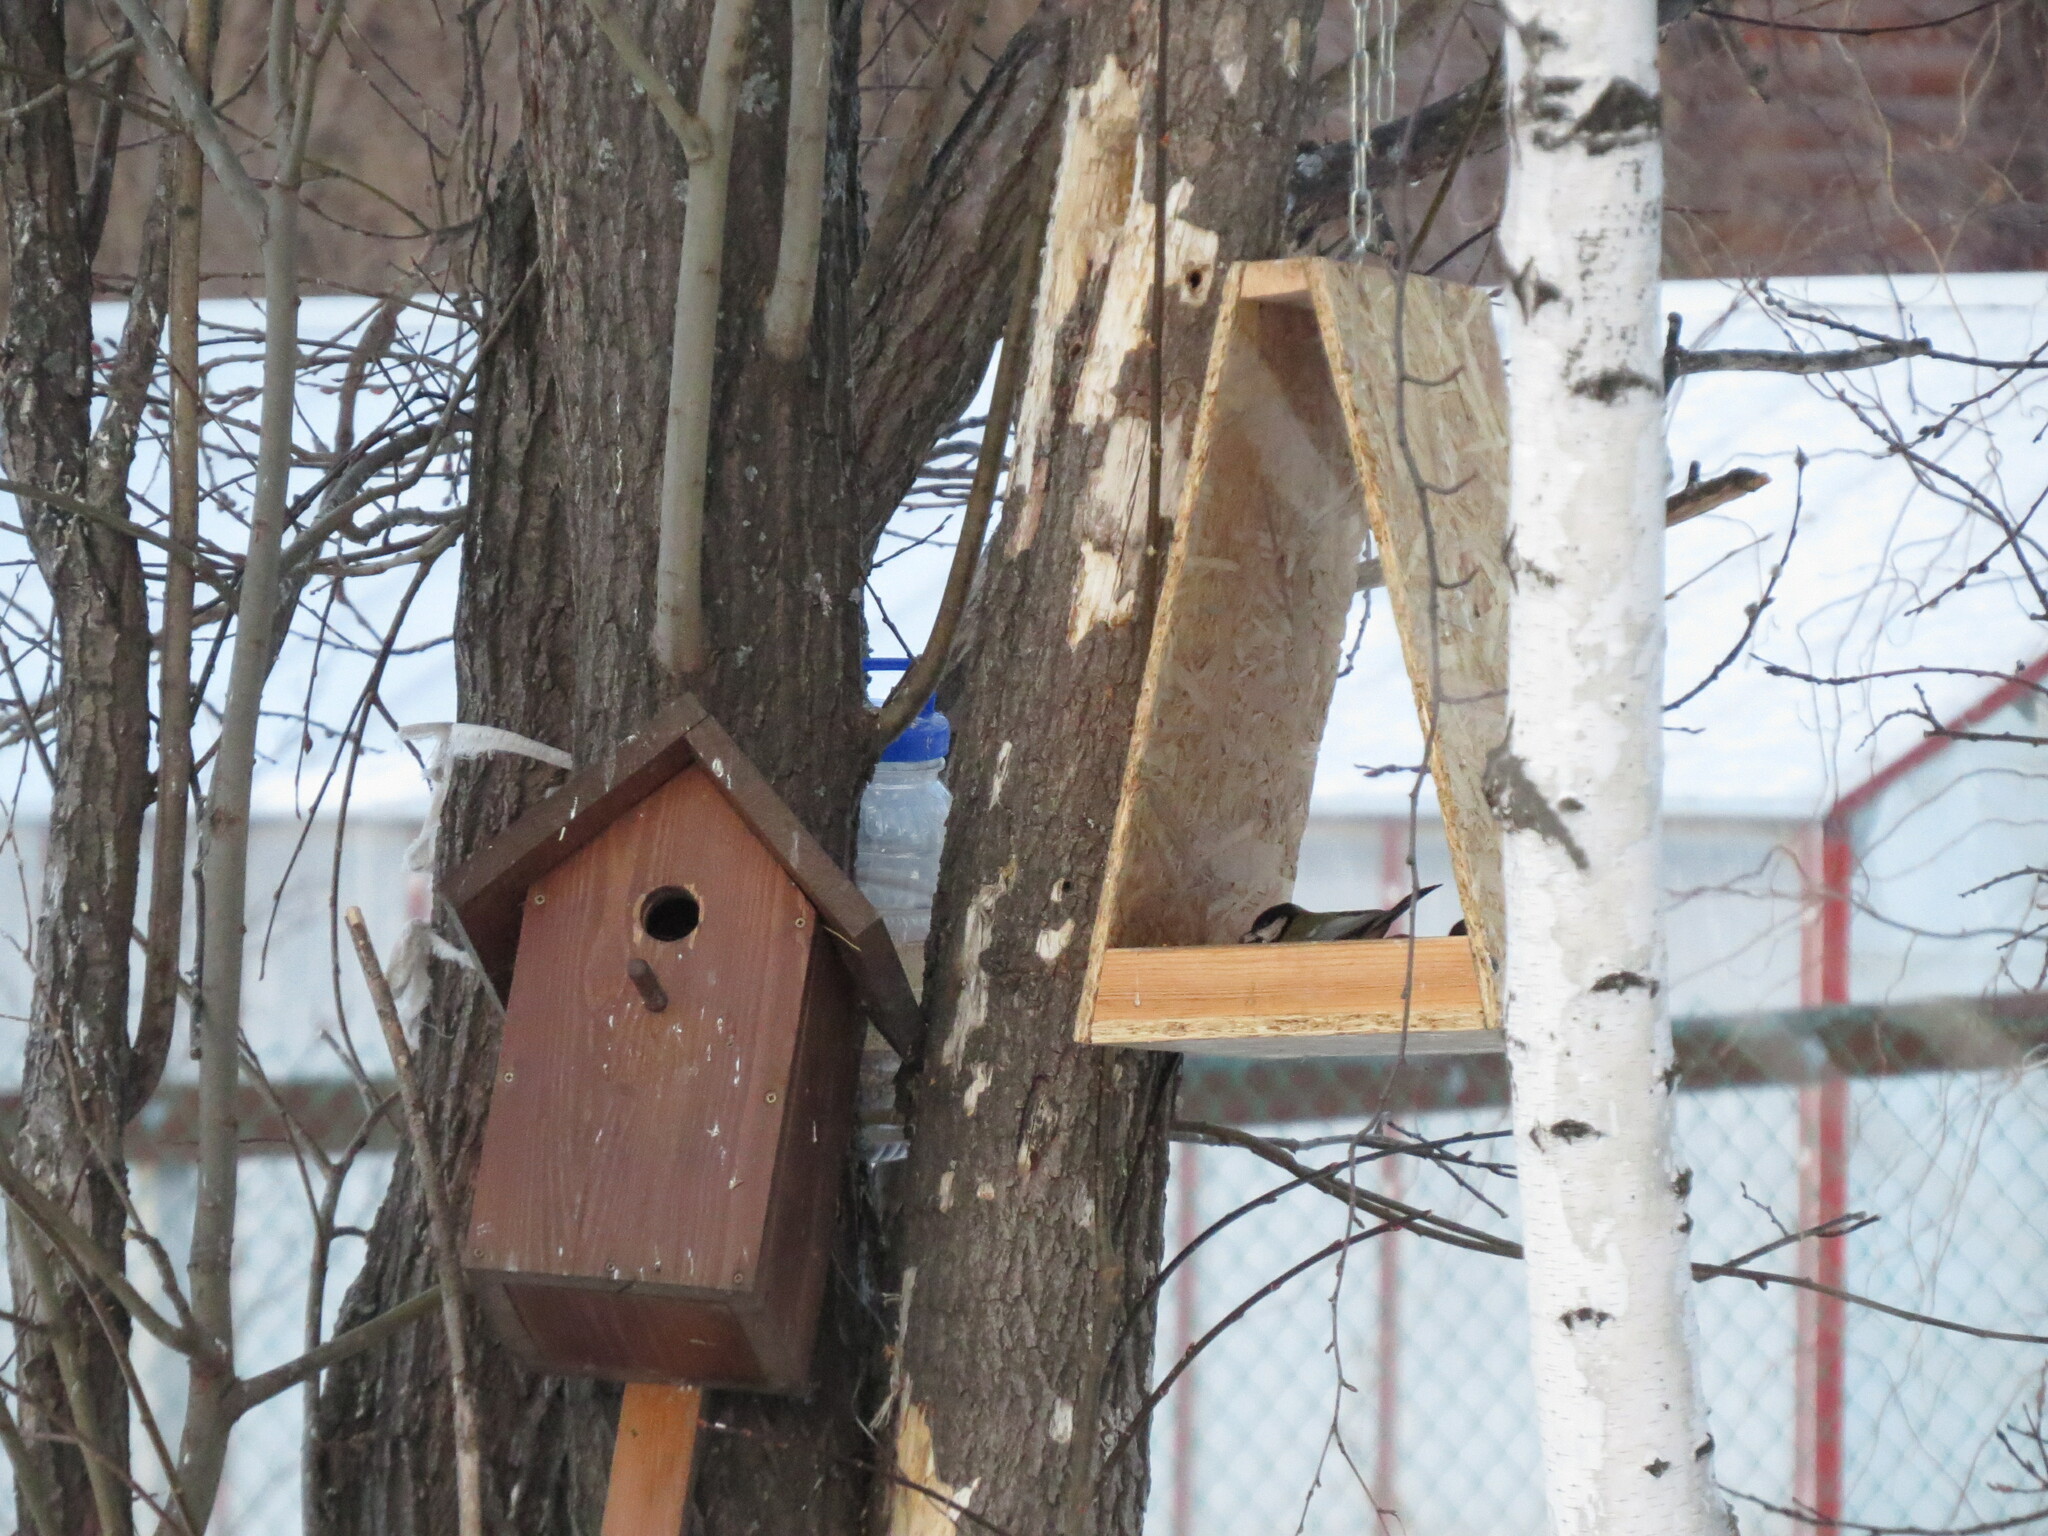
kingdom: Animalia
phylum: Chordata
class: Aves
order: Passeriformes
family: Paridae
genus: Parus
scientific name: Parus major
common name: Great tit
